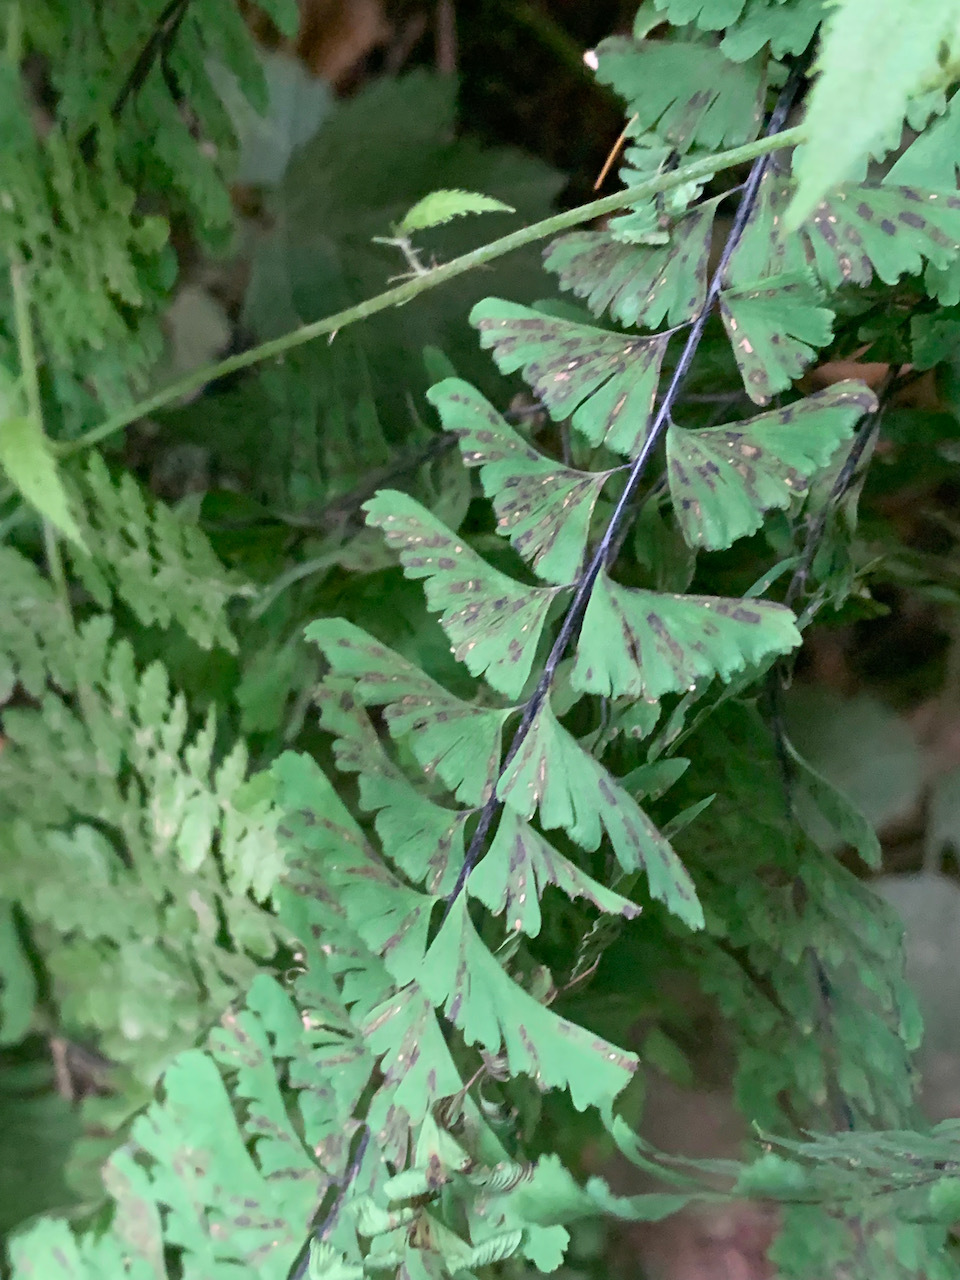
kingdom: Plantae
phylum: Tracheophyta
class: Polypodiopsida
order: Polypodiales
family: Pteridaceae
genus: Adiantum
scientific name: Adiantum aleuticum
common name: Aleutian maidenhair fern
